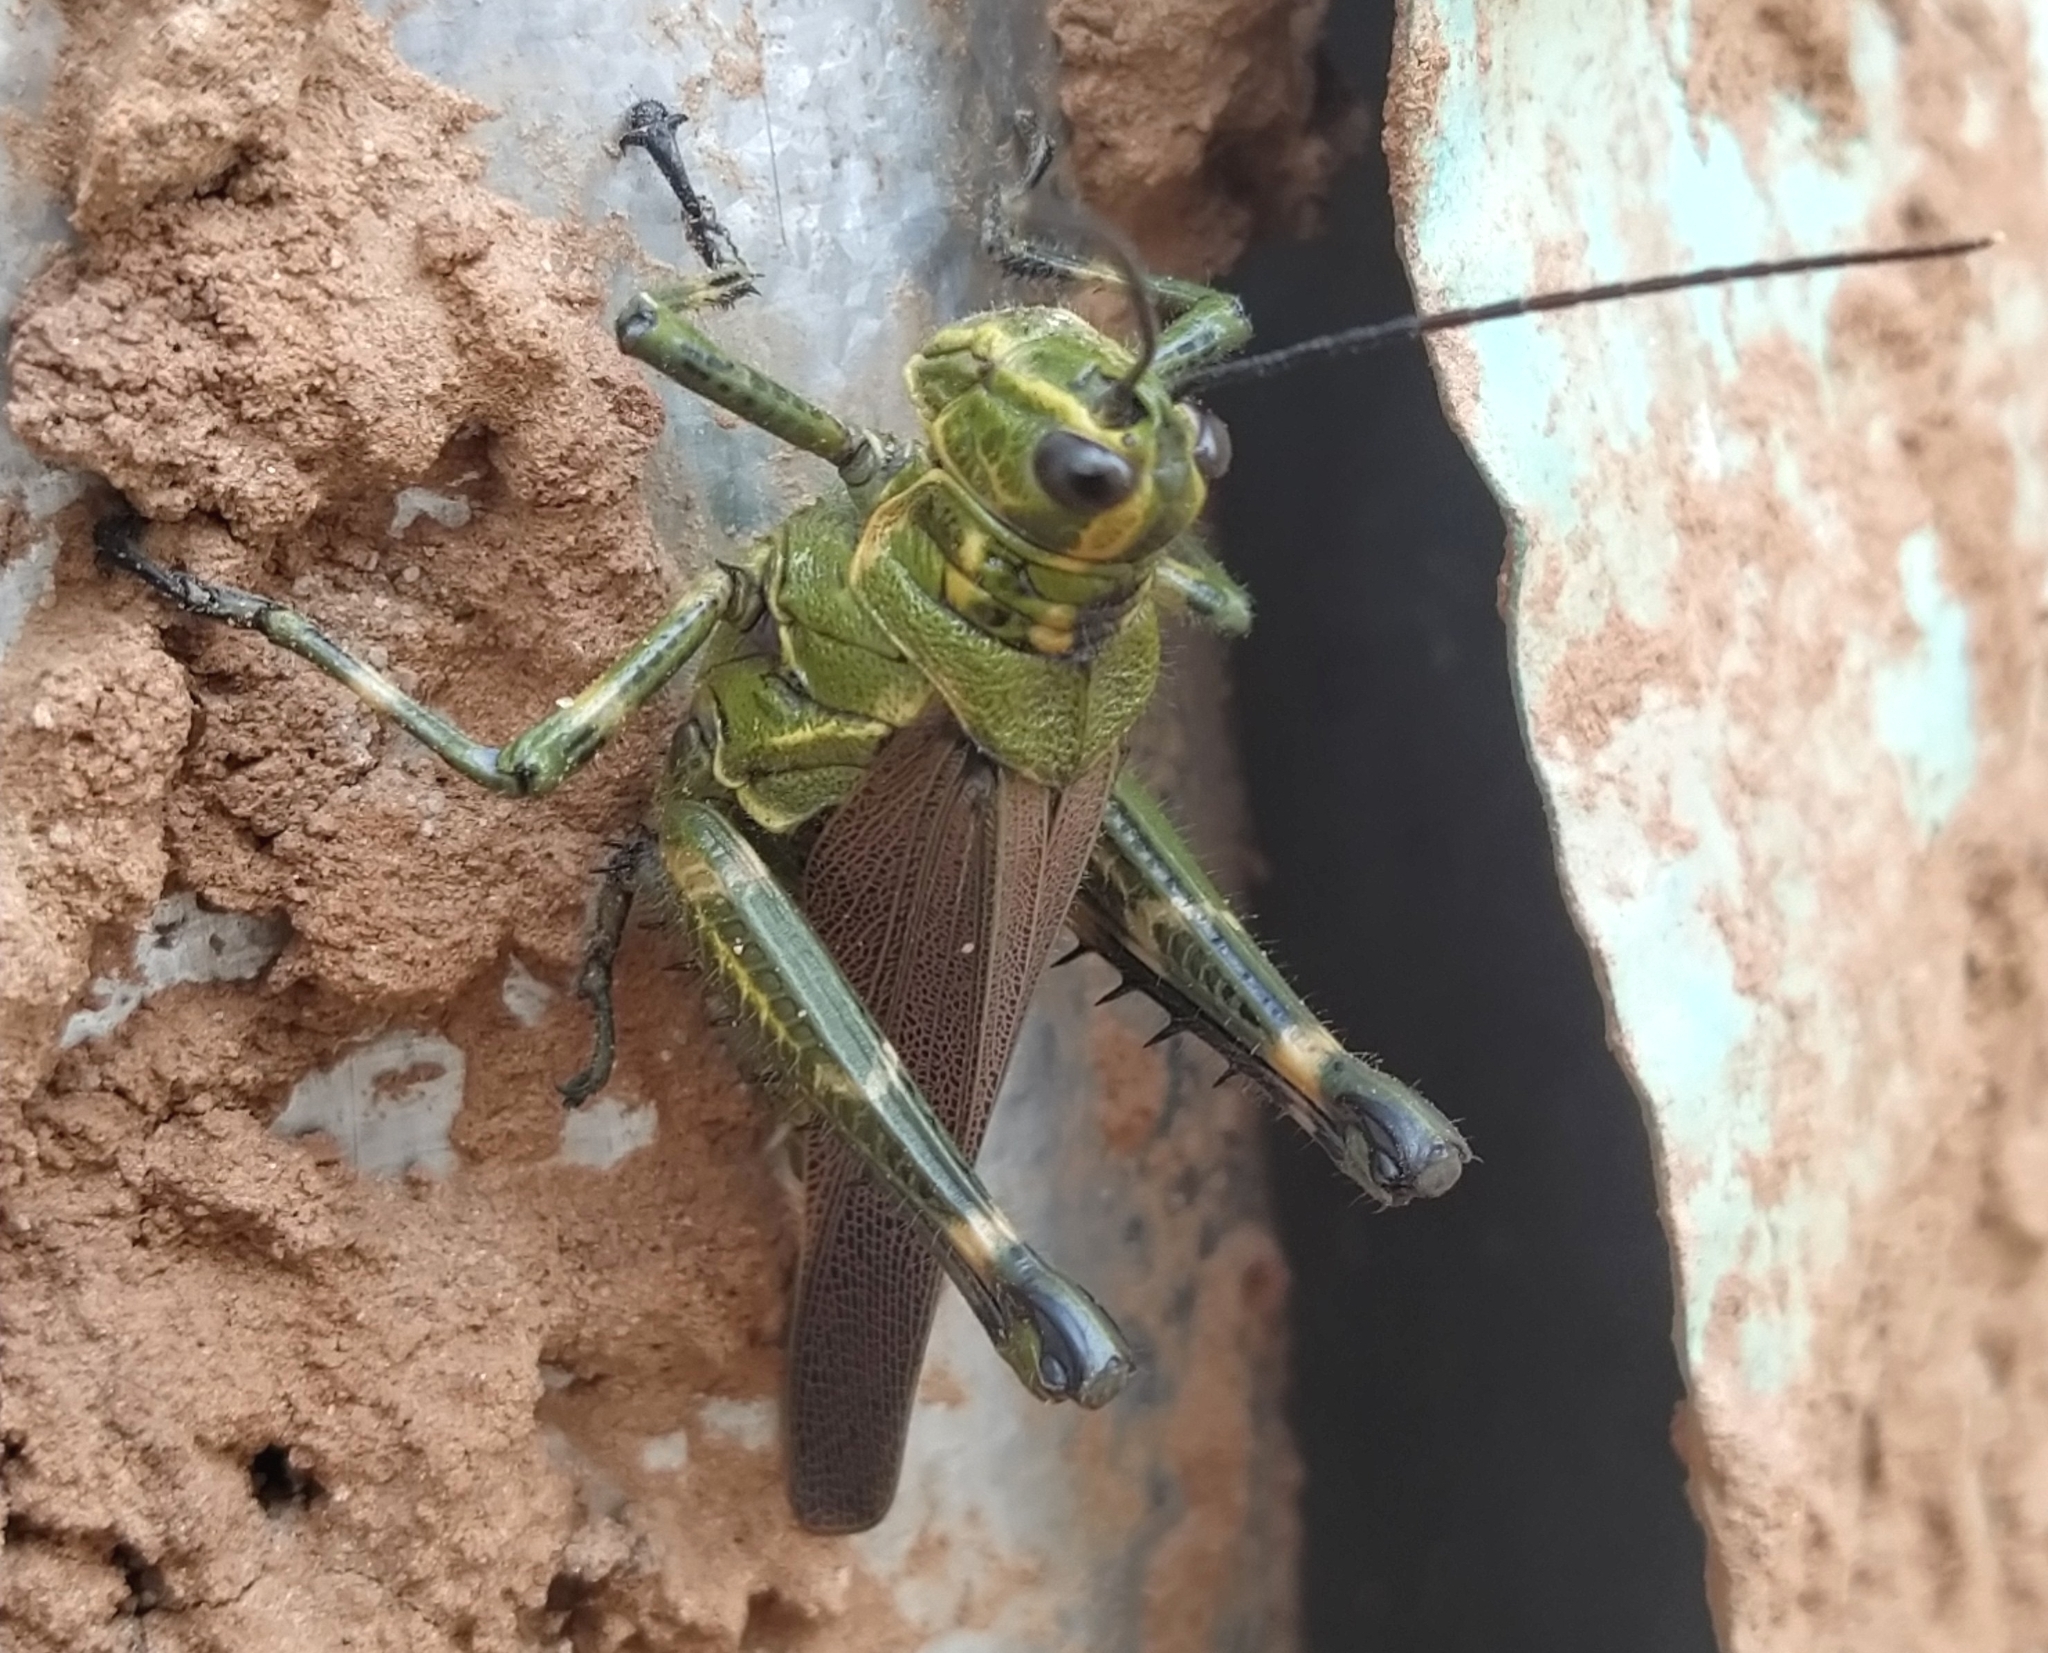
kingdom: Animalia
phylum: Arthropoda
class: Insecta
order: Orthoptera
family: Romaleidae
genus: Chromacris
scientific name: Chromacris speciosa
